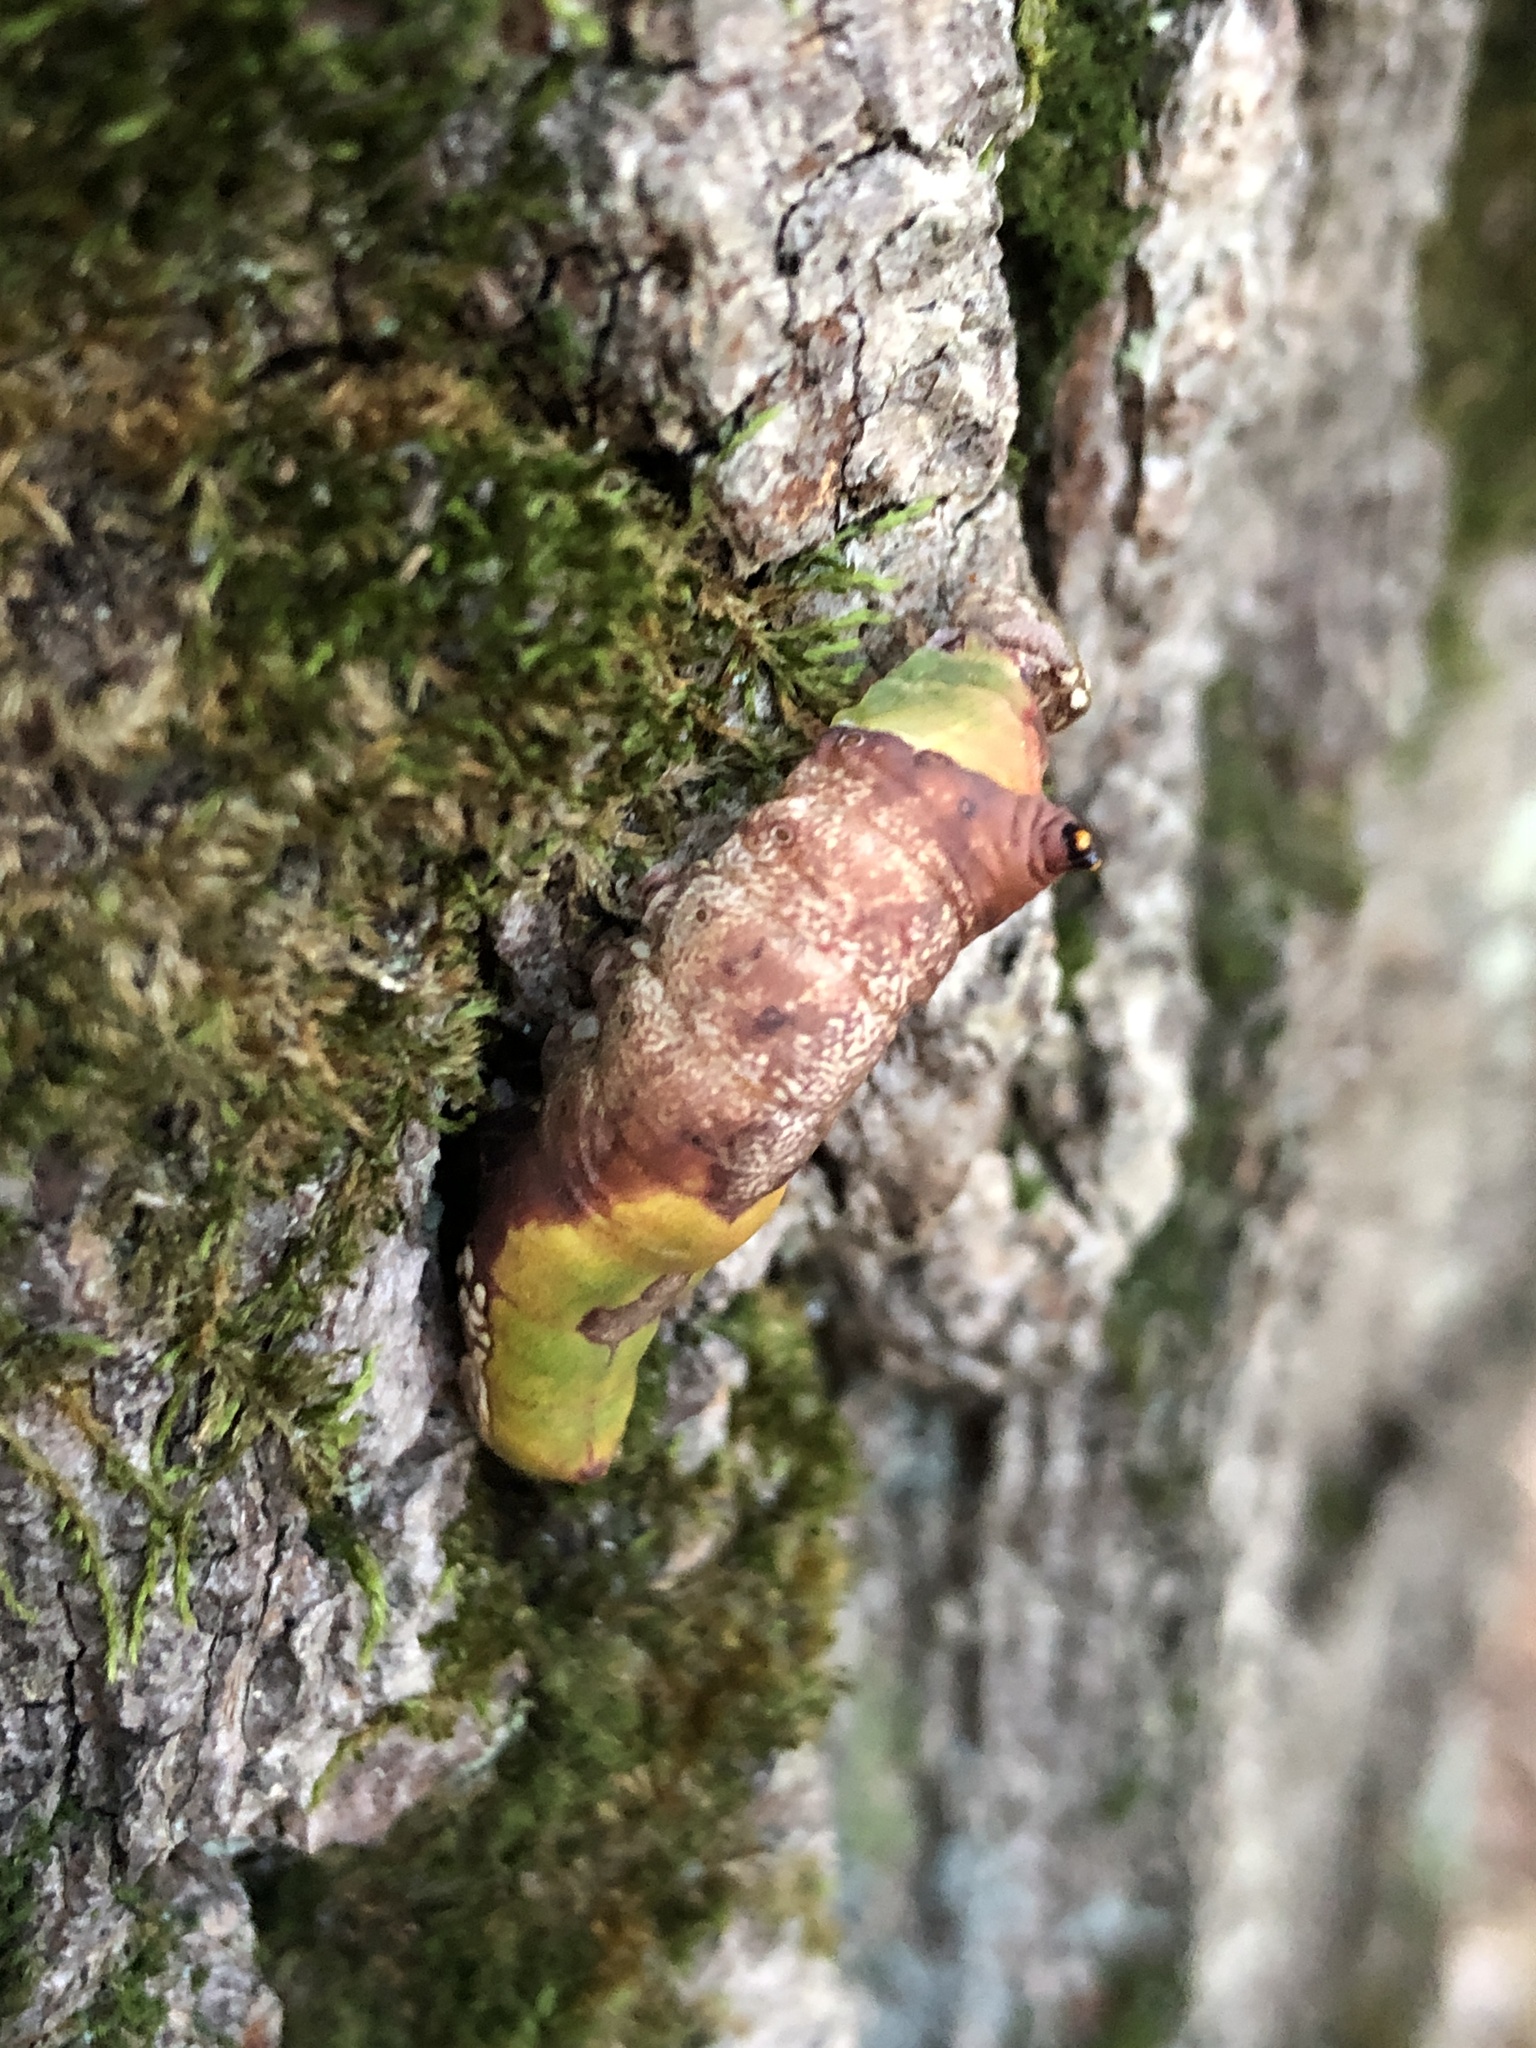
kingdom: Animalia
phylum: Arthropoda
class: Insecta
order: Lepidoptera
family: Notodontidae
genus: Oligocentria
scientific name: Oligocentria Ianassa lignicolor
